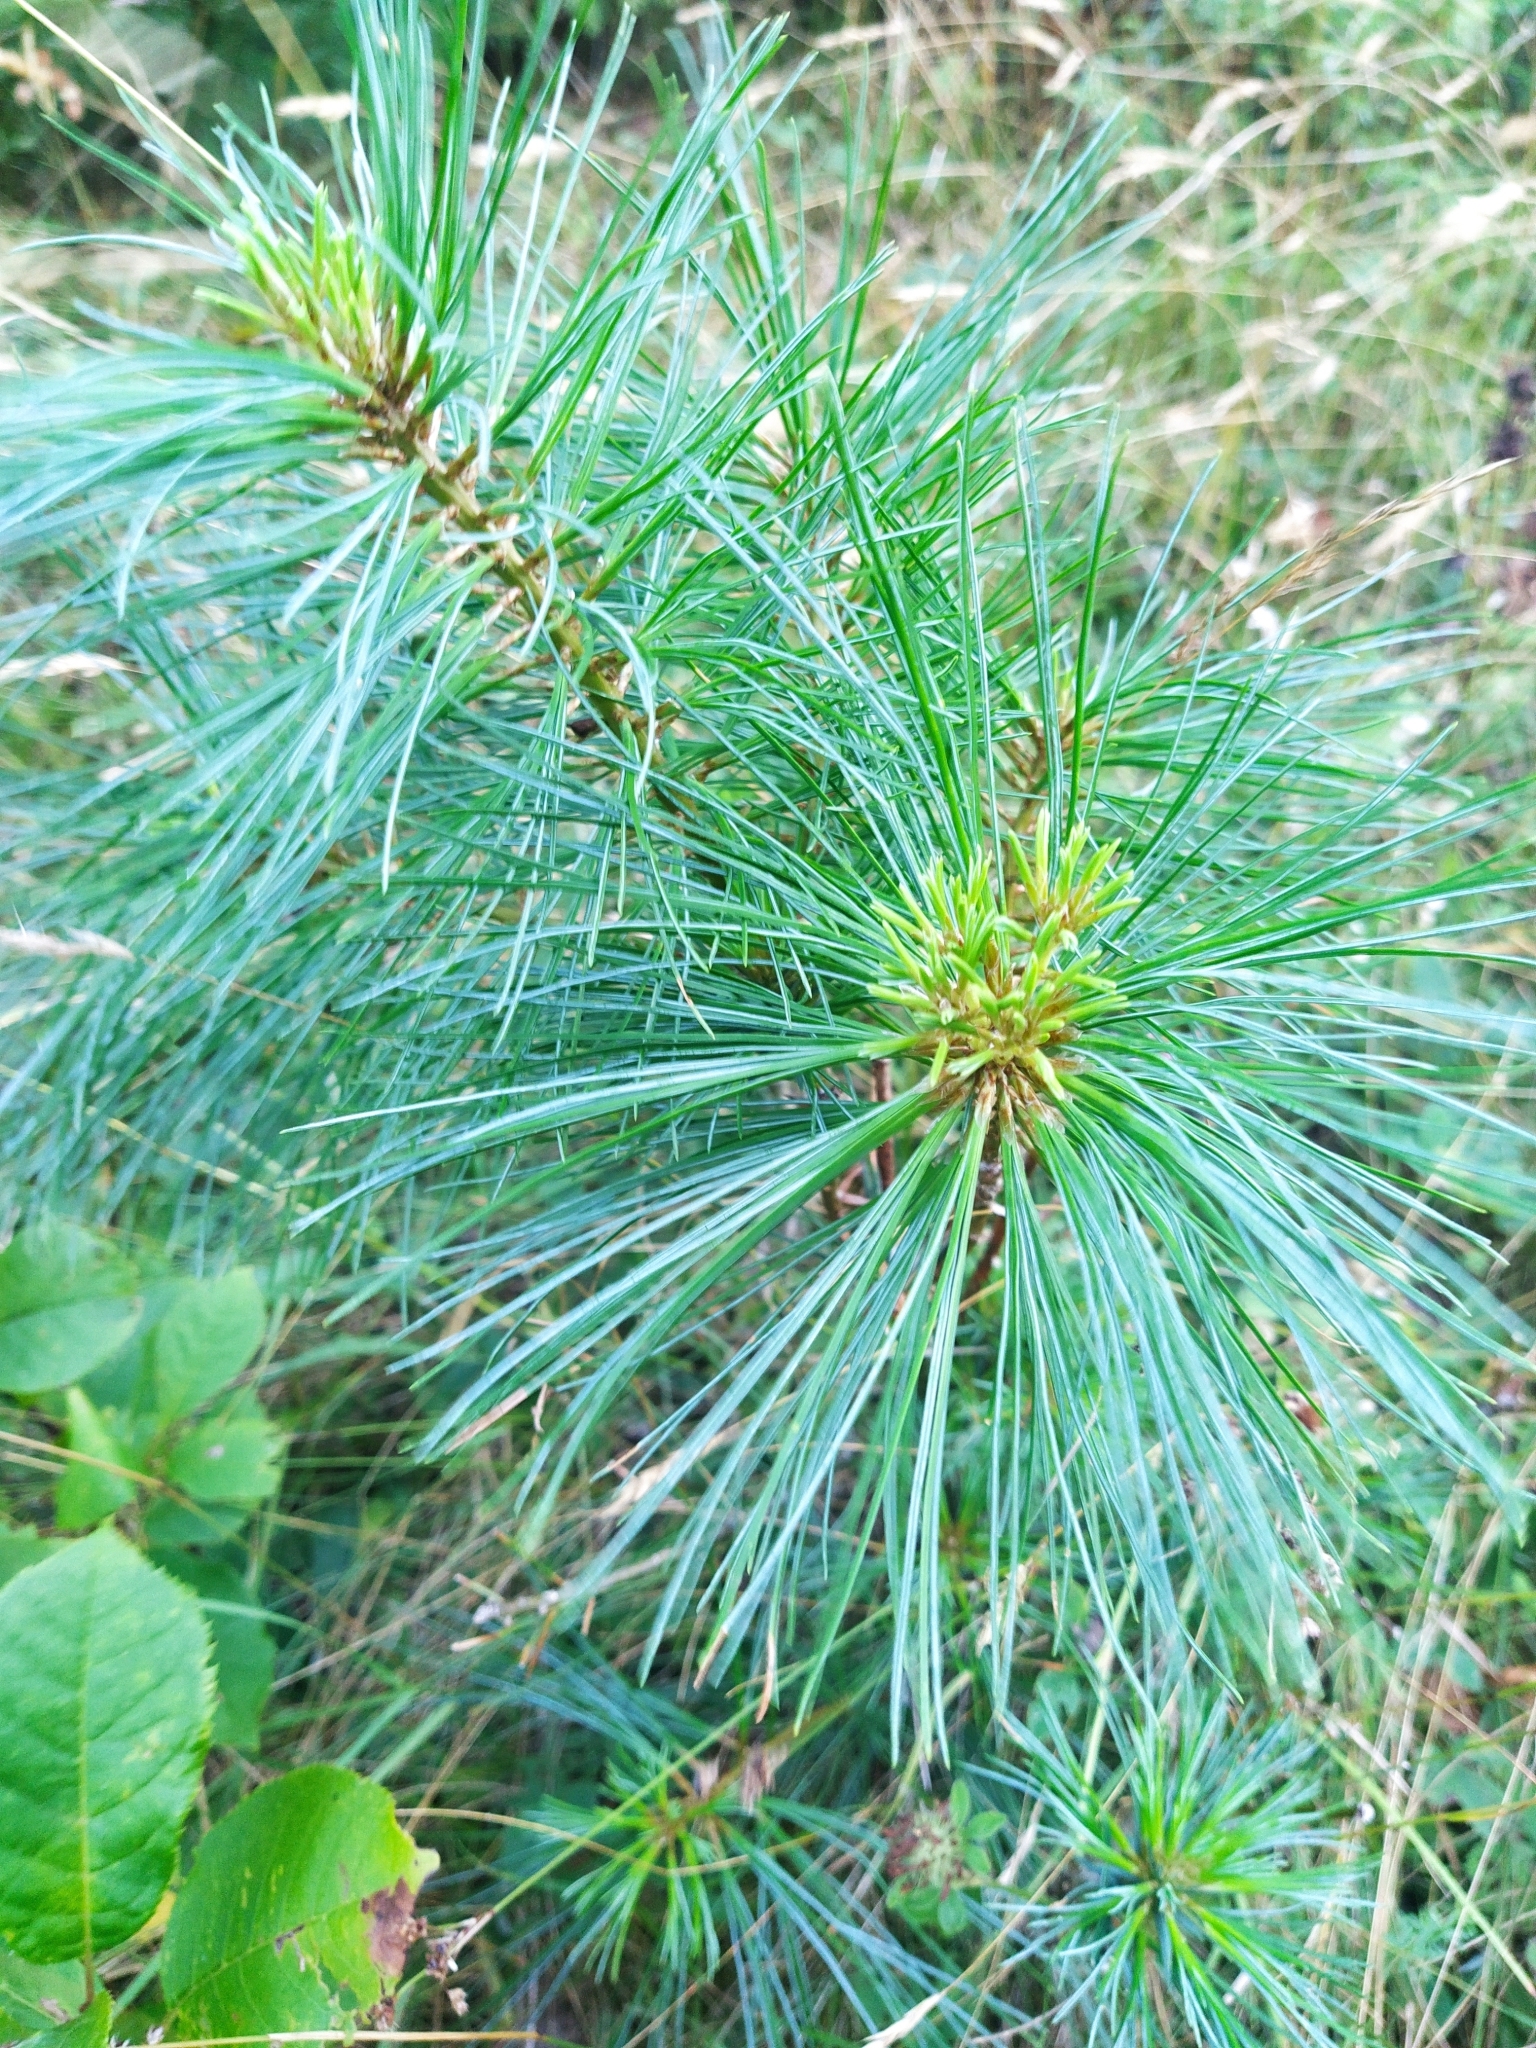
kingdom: Plantae
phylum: Tracheophyta
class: Pinopsida
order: Pinales
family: Pinaceae
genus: Pinus
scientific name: Pinus strobus
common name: Weymouth pine
